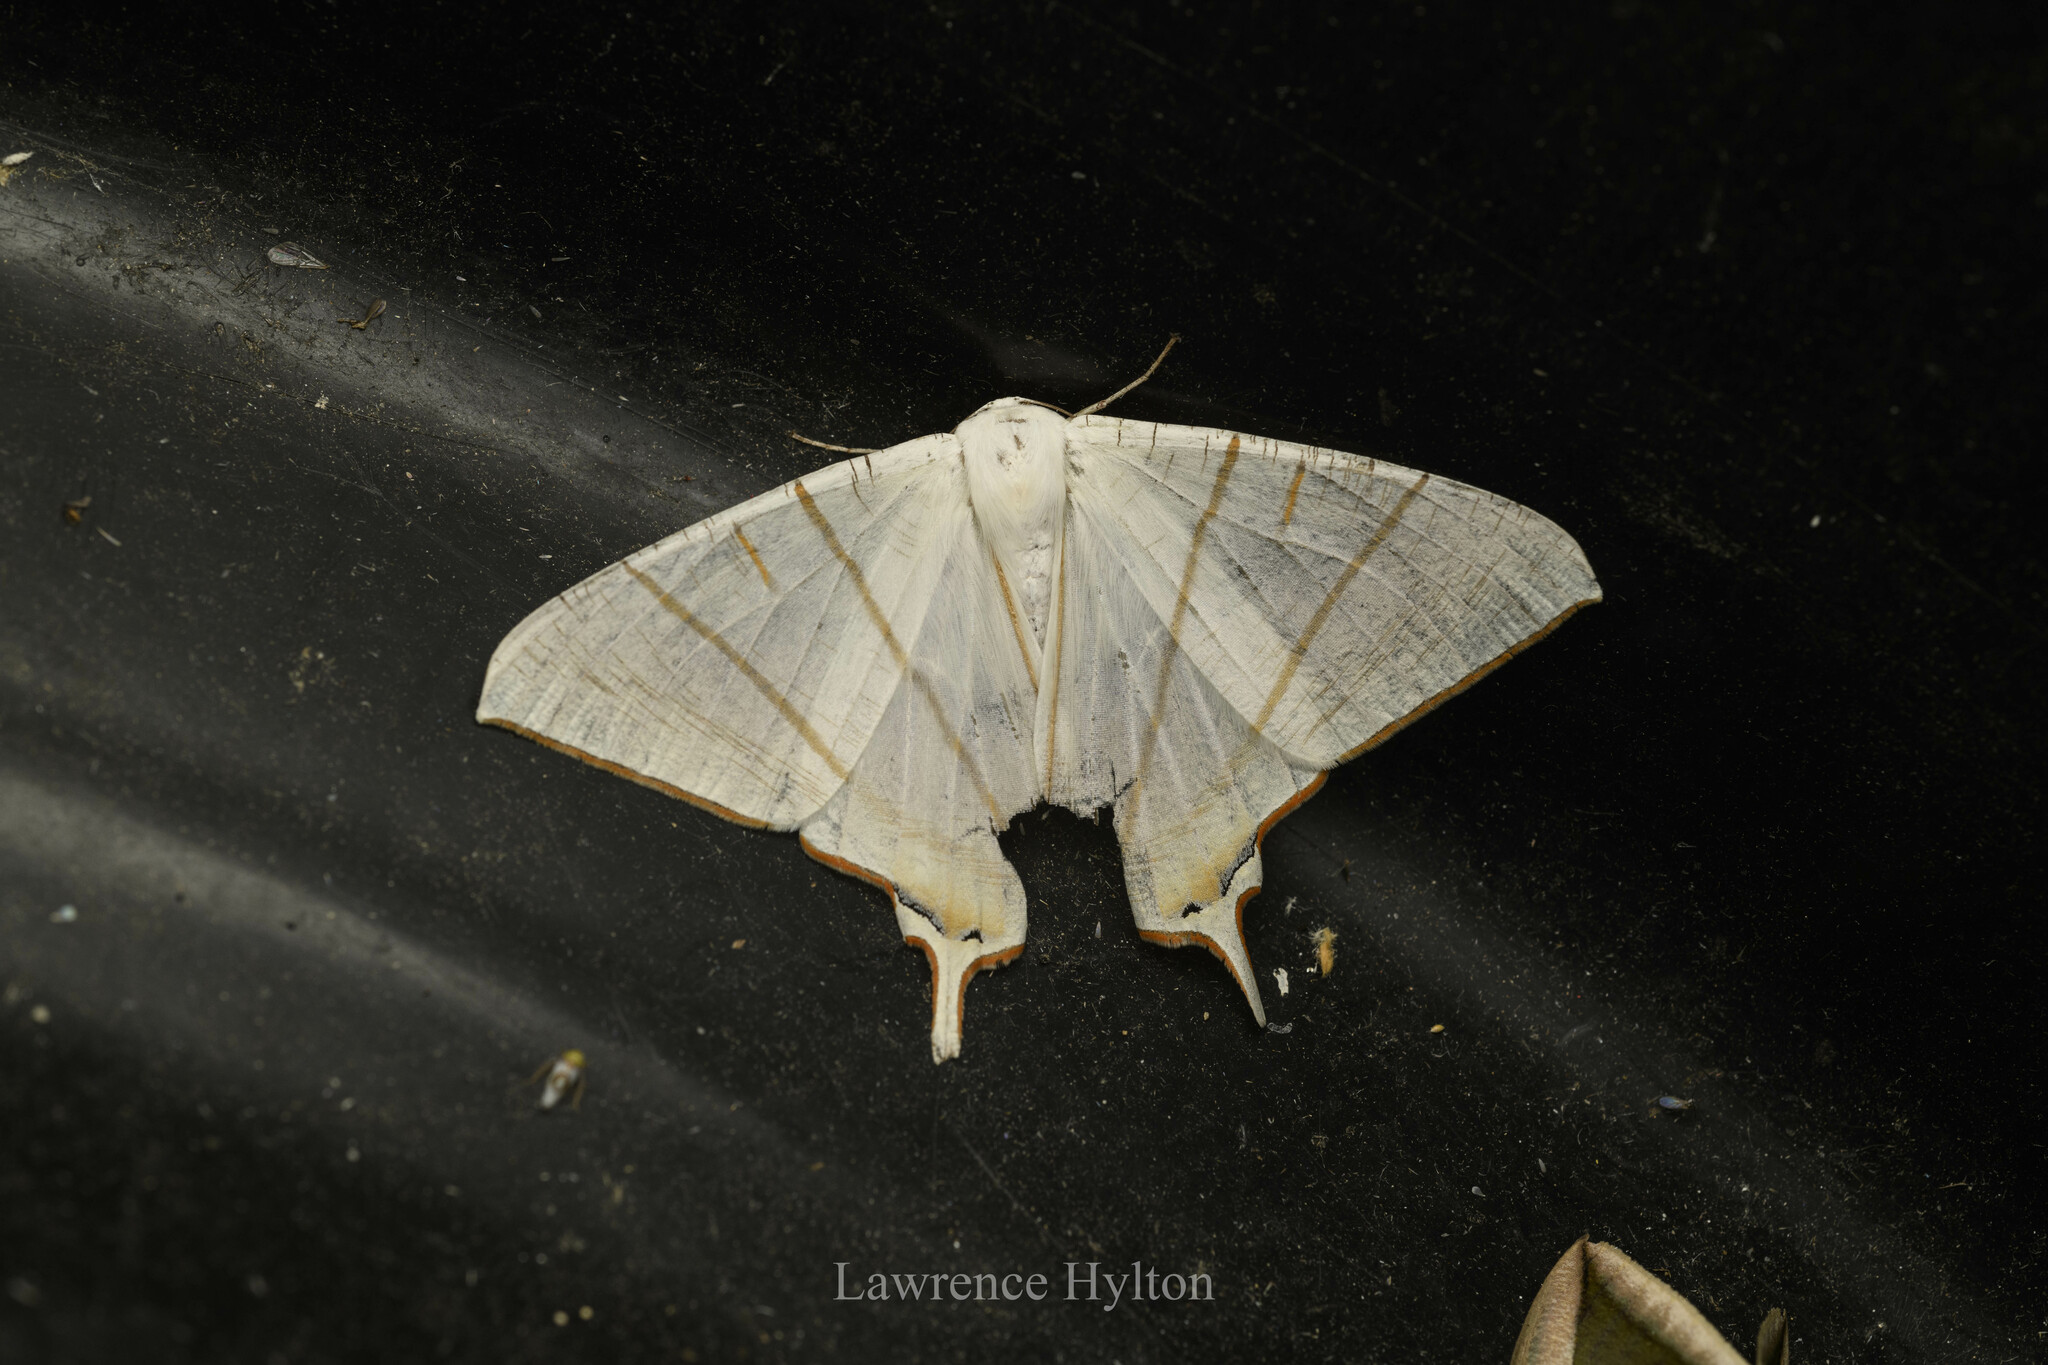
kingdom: Animalia
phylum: Arthropoda
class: Insecta
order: Lepidoptera
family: Geometridae
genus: Ourapteryx
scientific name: Ourapteryx clara
